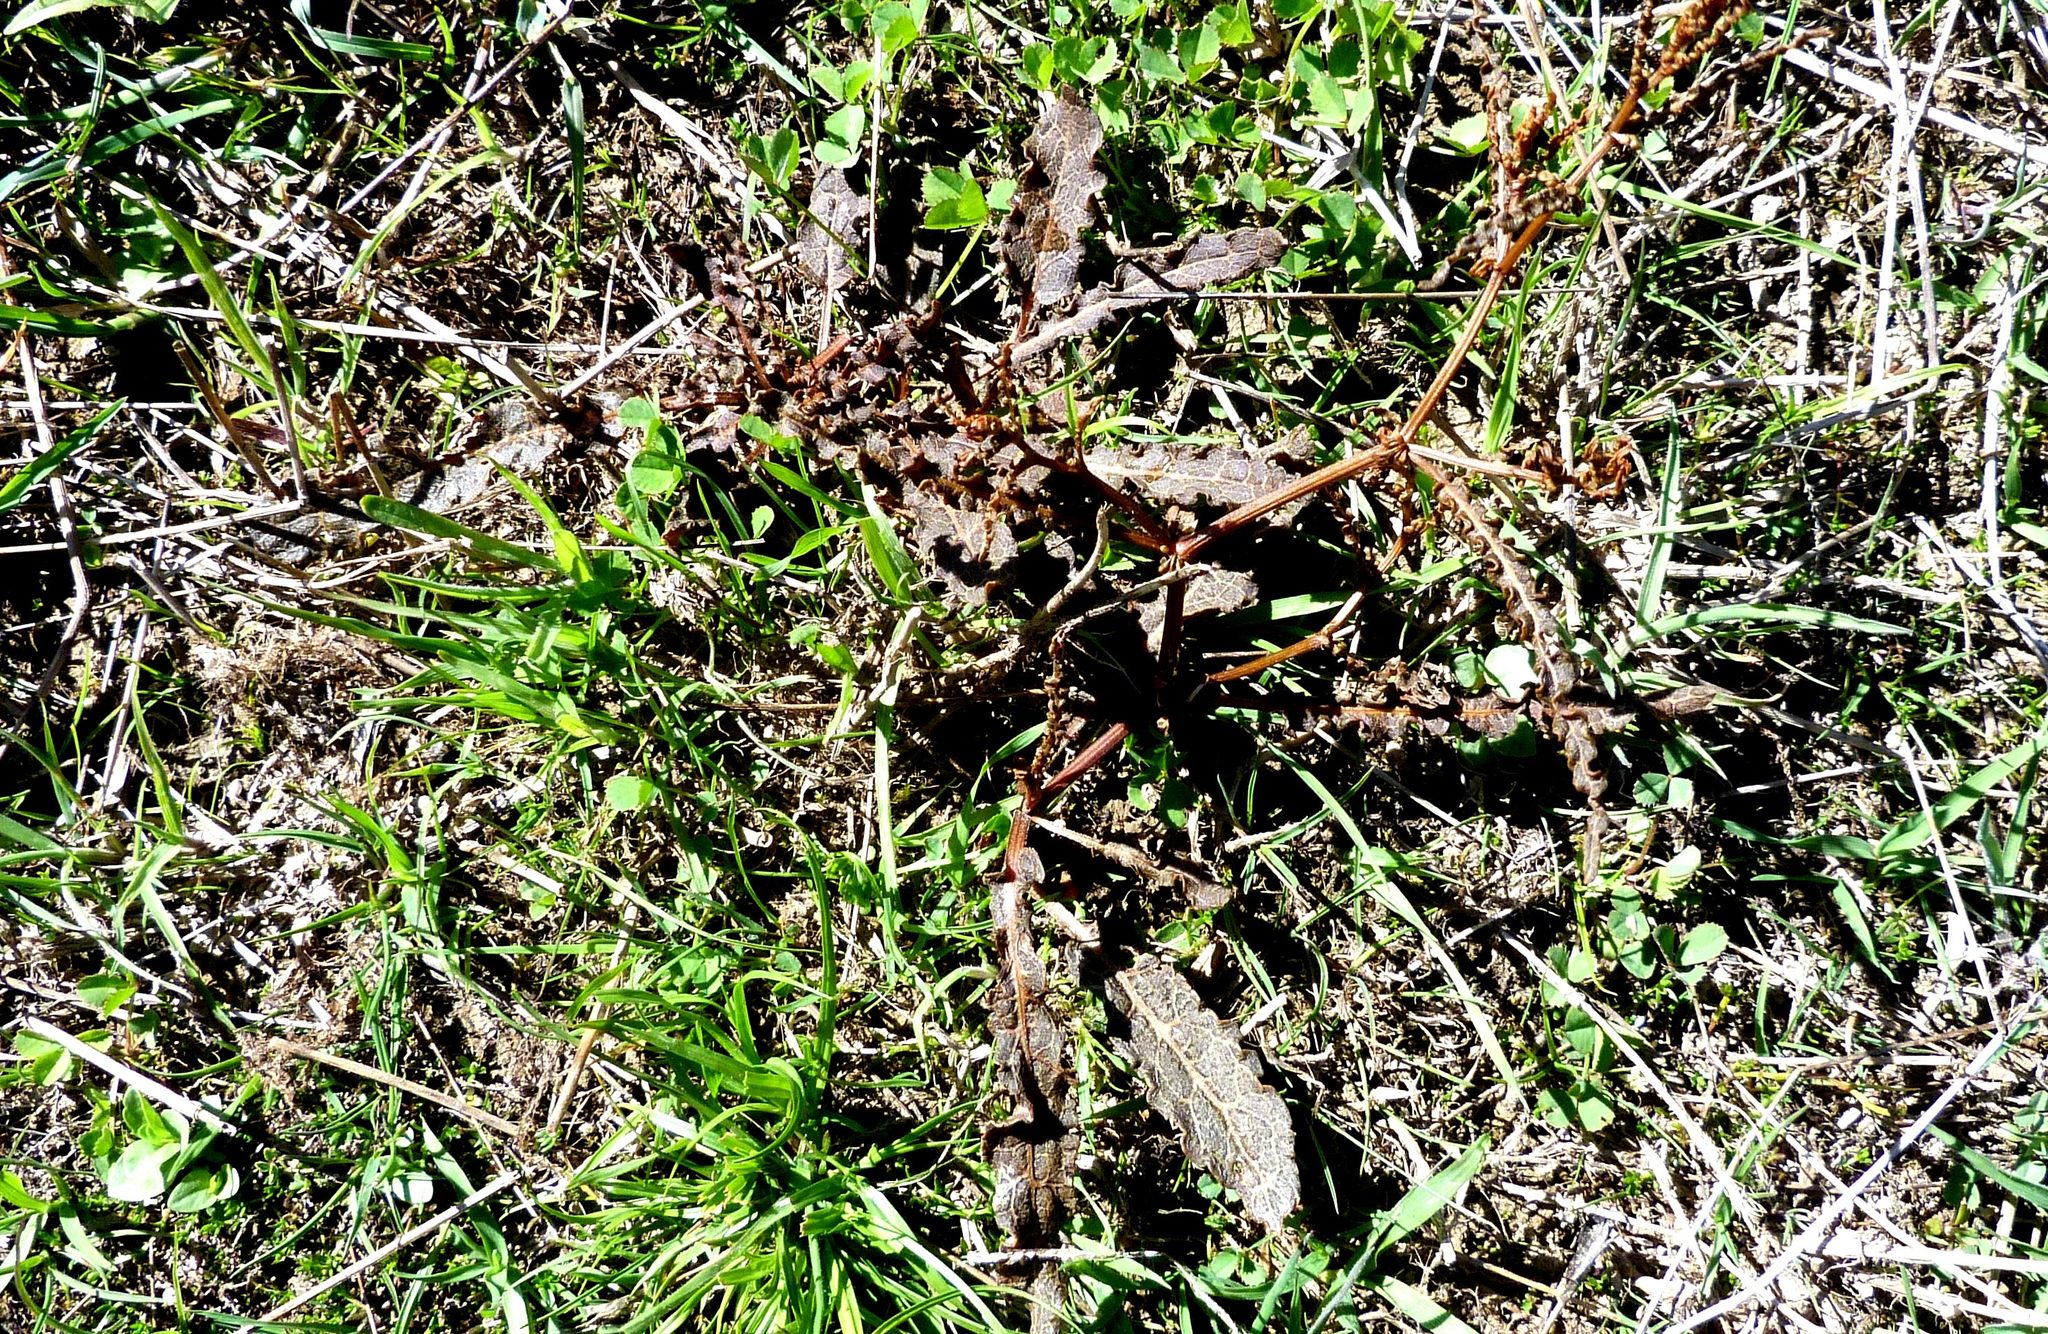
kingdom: Plantae
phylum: Tracheophyta
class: Magnoliopsida
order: Caryophyllales
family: Polygonaceae
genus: Rumex
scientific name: Rumex flexuosus
